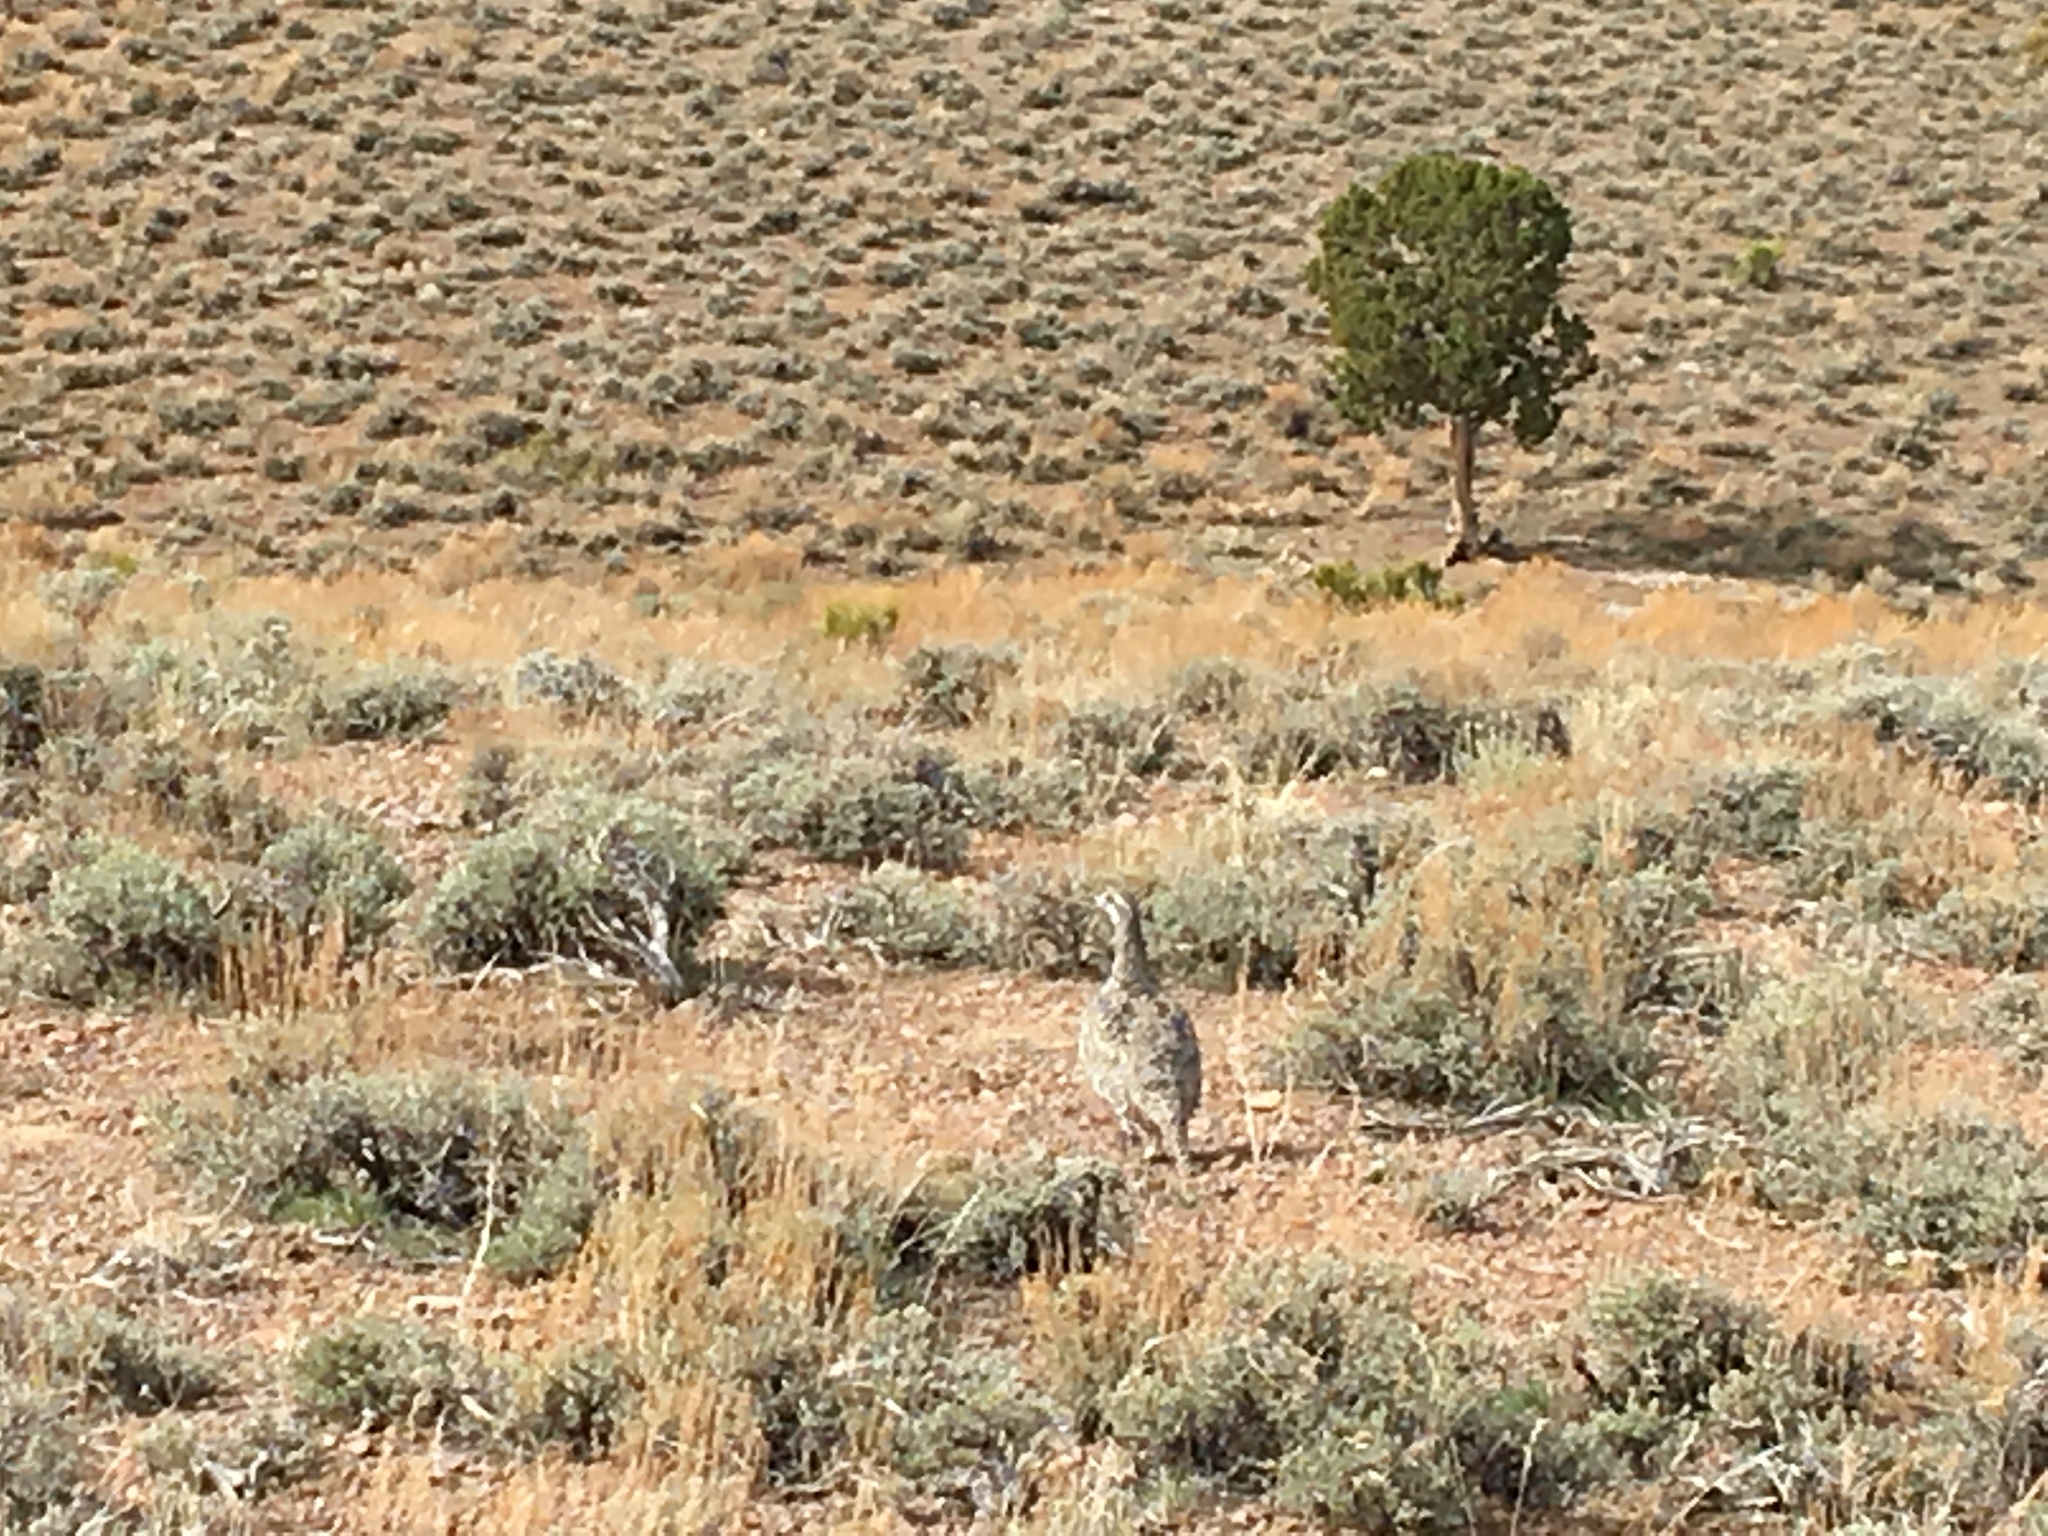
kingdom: Animalia
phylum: Chordata
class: Aves
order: Galliformes
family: Phasianidae
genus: Centrocercus
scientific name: Centrocercus urophasianus
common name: Sage grouse
